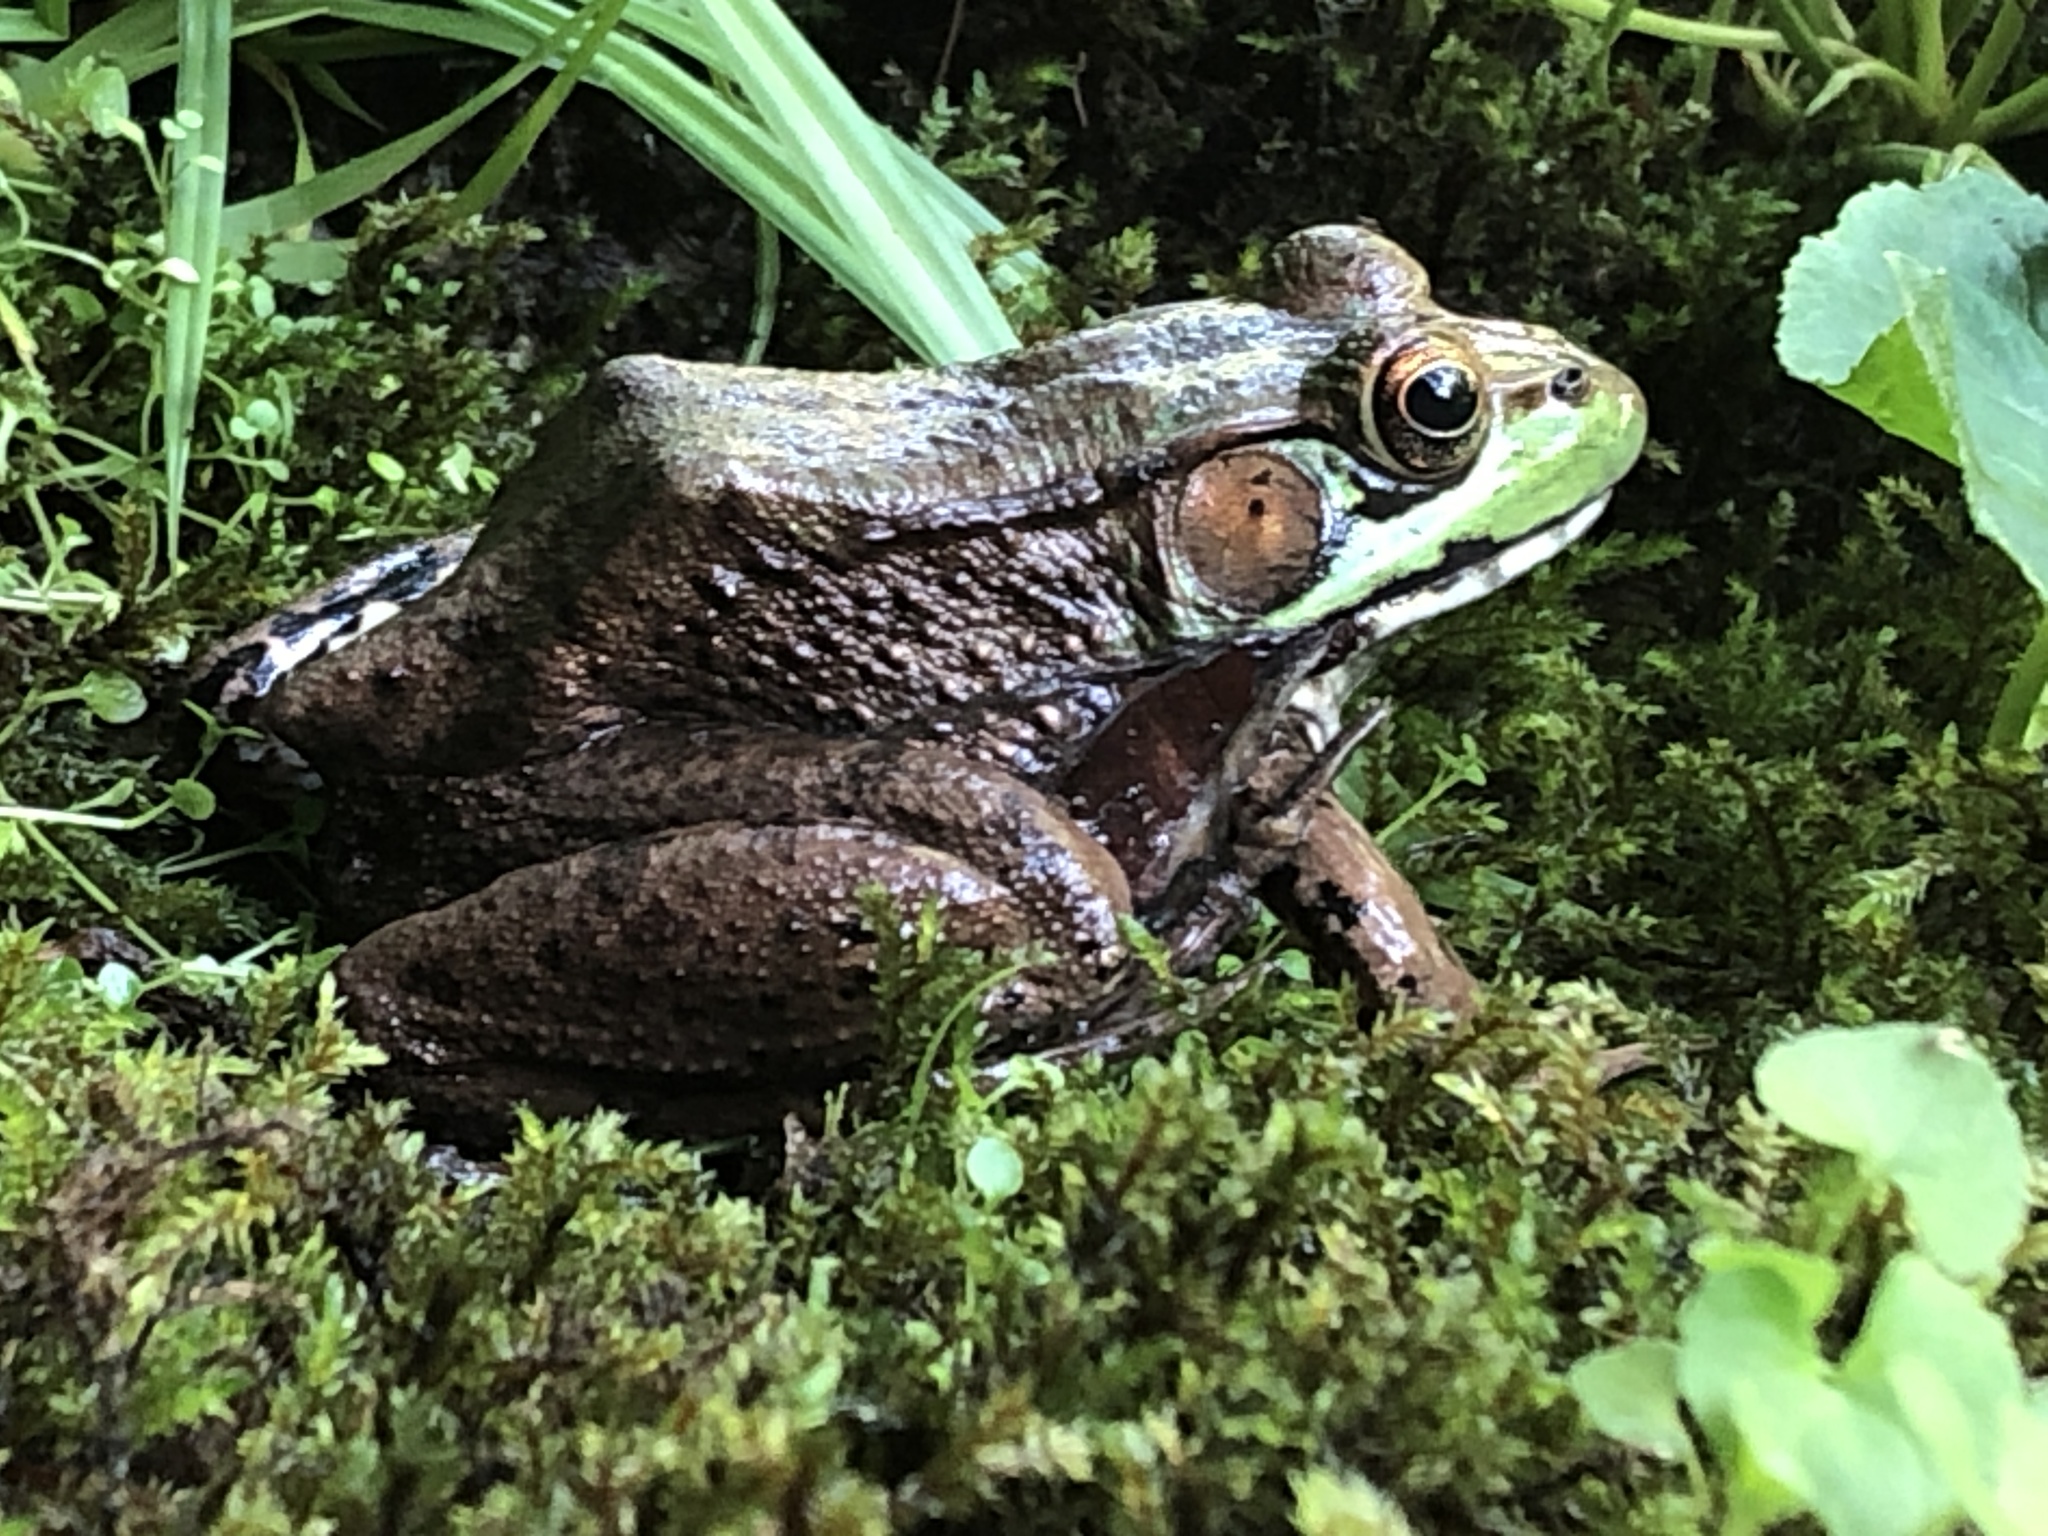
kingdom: Animalia
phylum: Chordata
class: Amphibia
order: Anura
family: Ranidae
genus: Lithobates
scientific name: Lithobates clamitans
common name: Green frog
